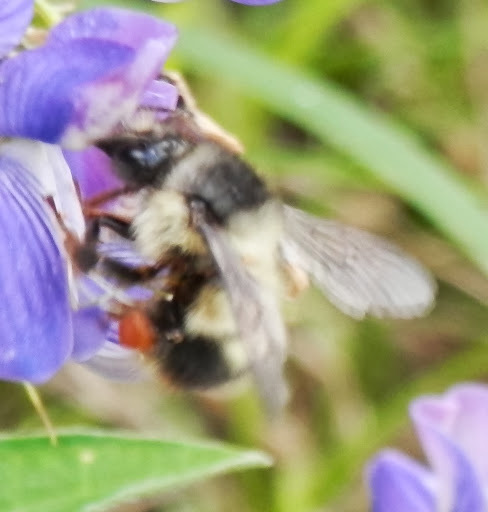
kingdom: Animalia
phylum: Arthropoda
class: Insecta
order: Hymenoptera
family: Apidae
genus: Bombus
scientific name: Bombus mixtus
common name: Fuzzy-horned bumble bee
